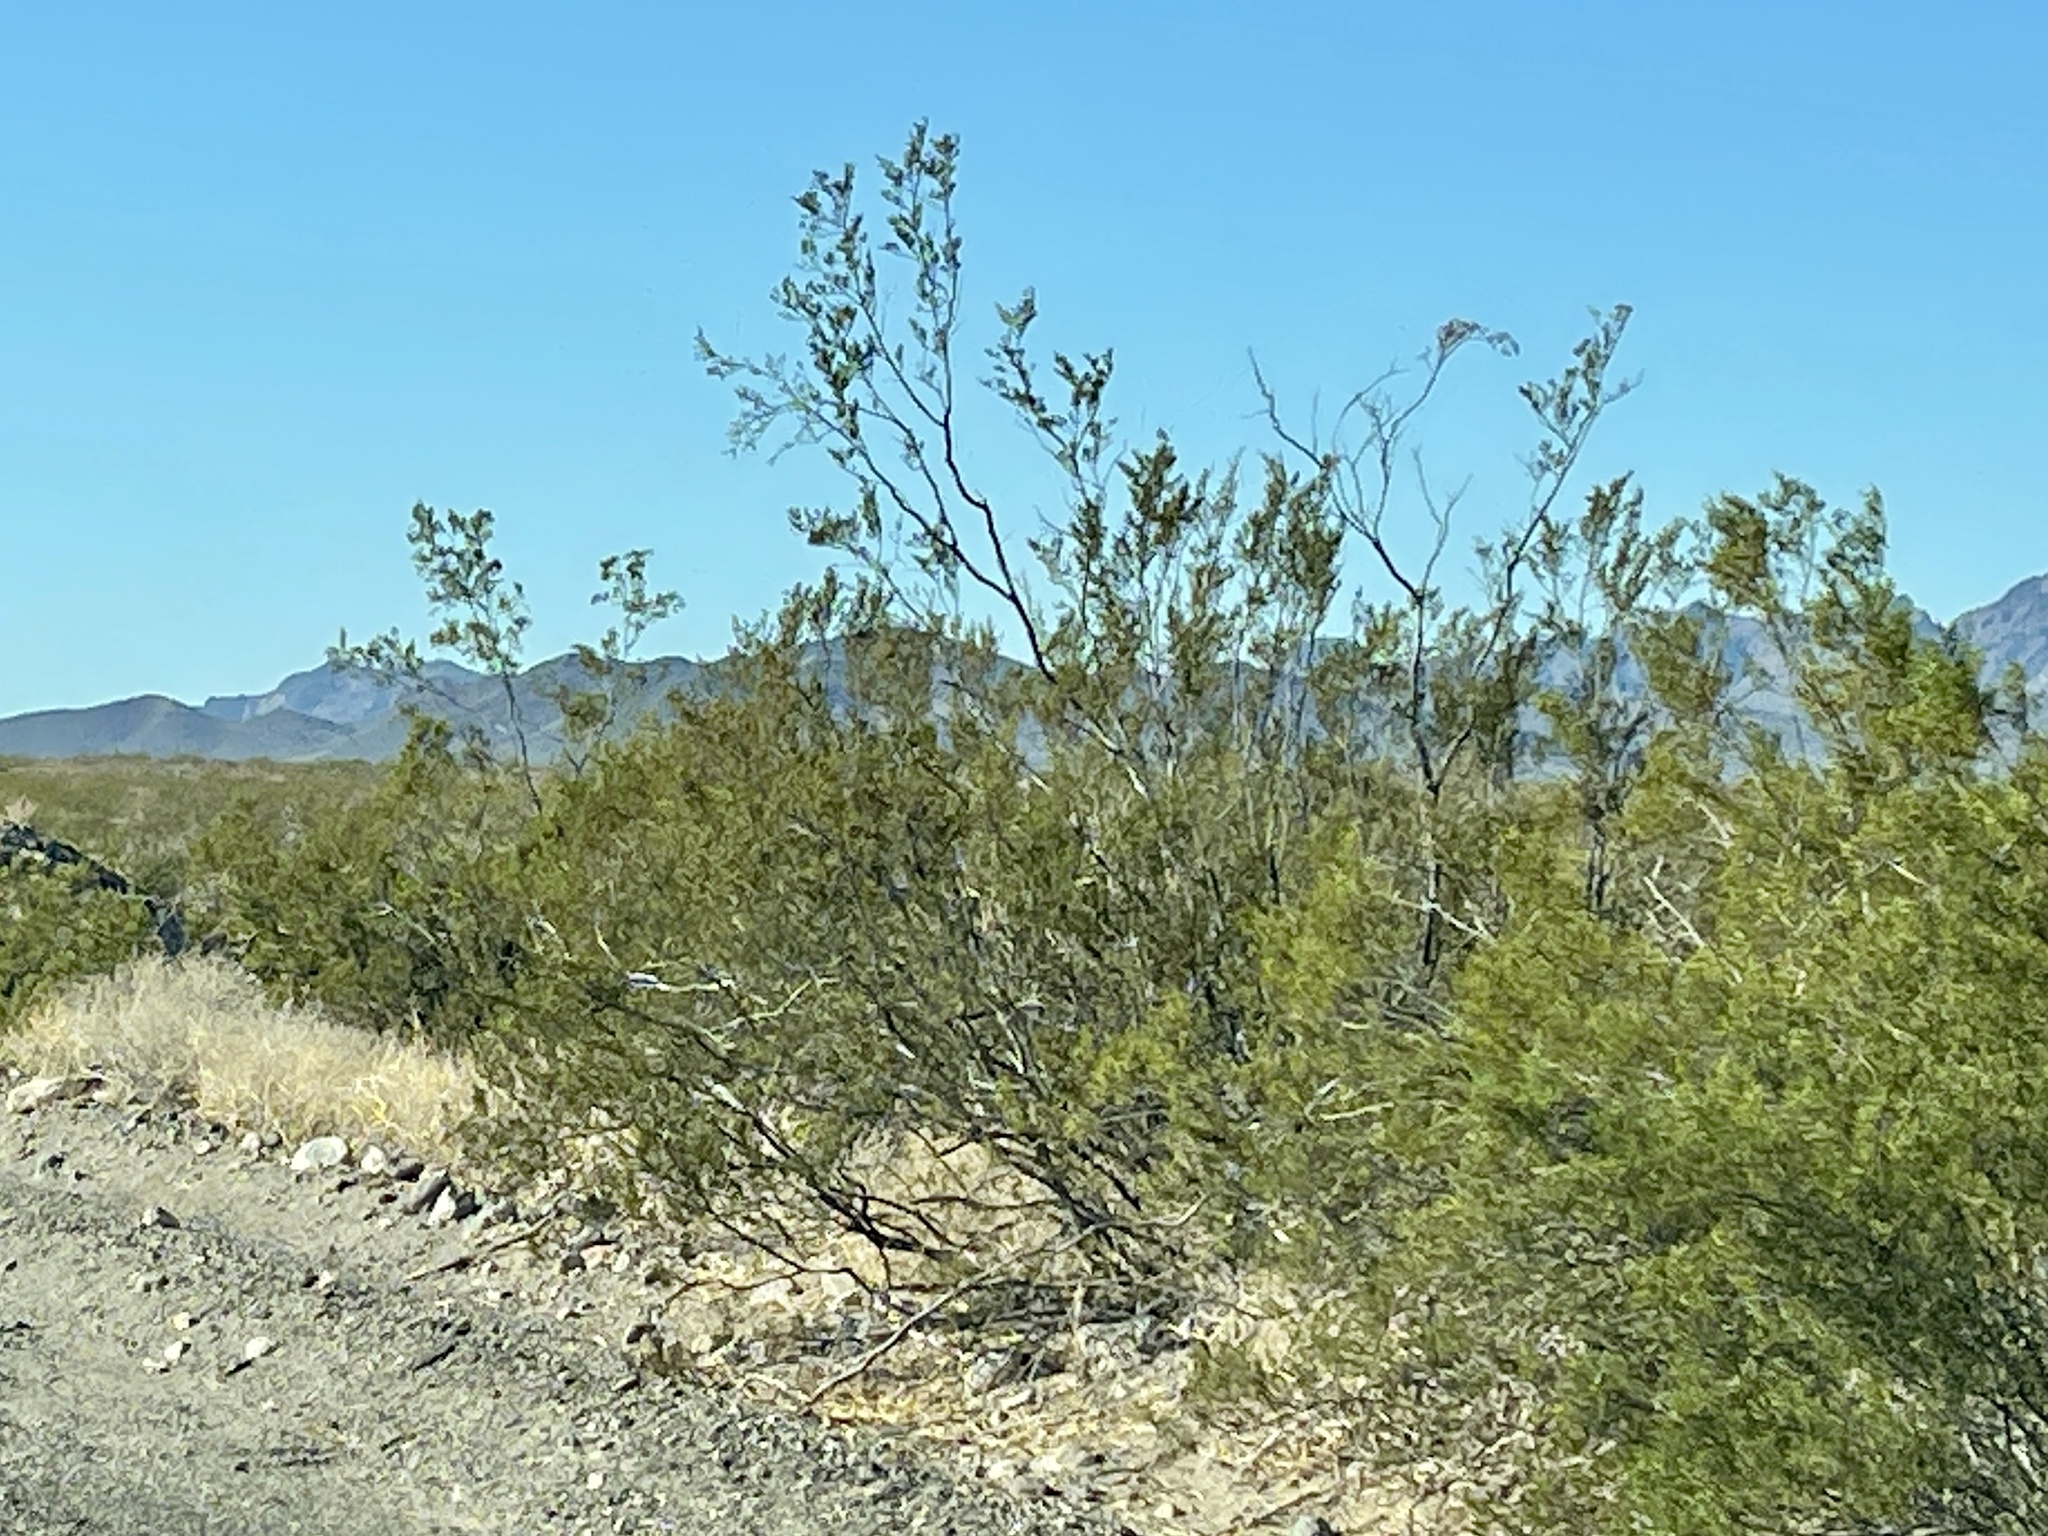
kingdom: Plantae
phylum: Tracheophyta
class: Magnoliopsida
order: Zygophyllales
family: Zygophyllaceae
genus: Larrea
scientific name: Larrea tridentata
